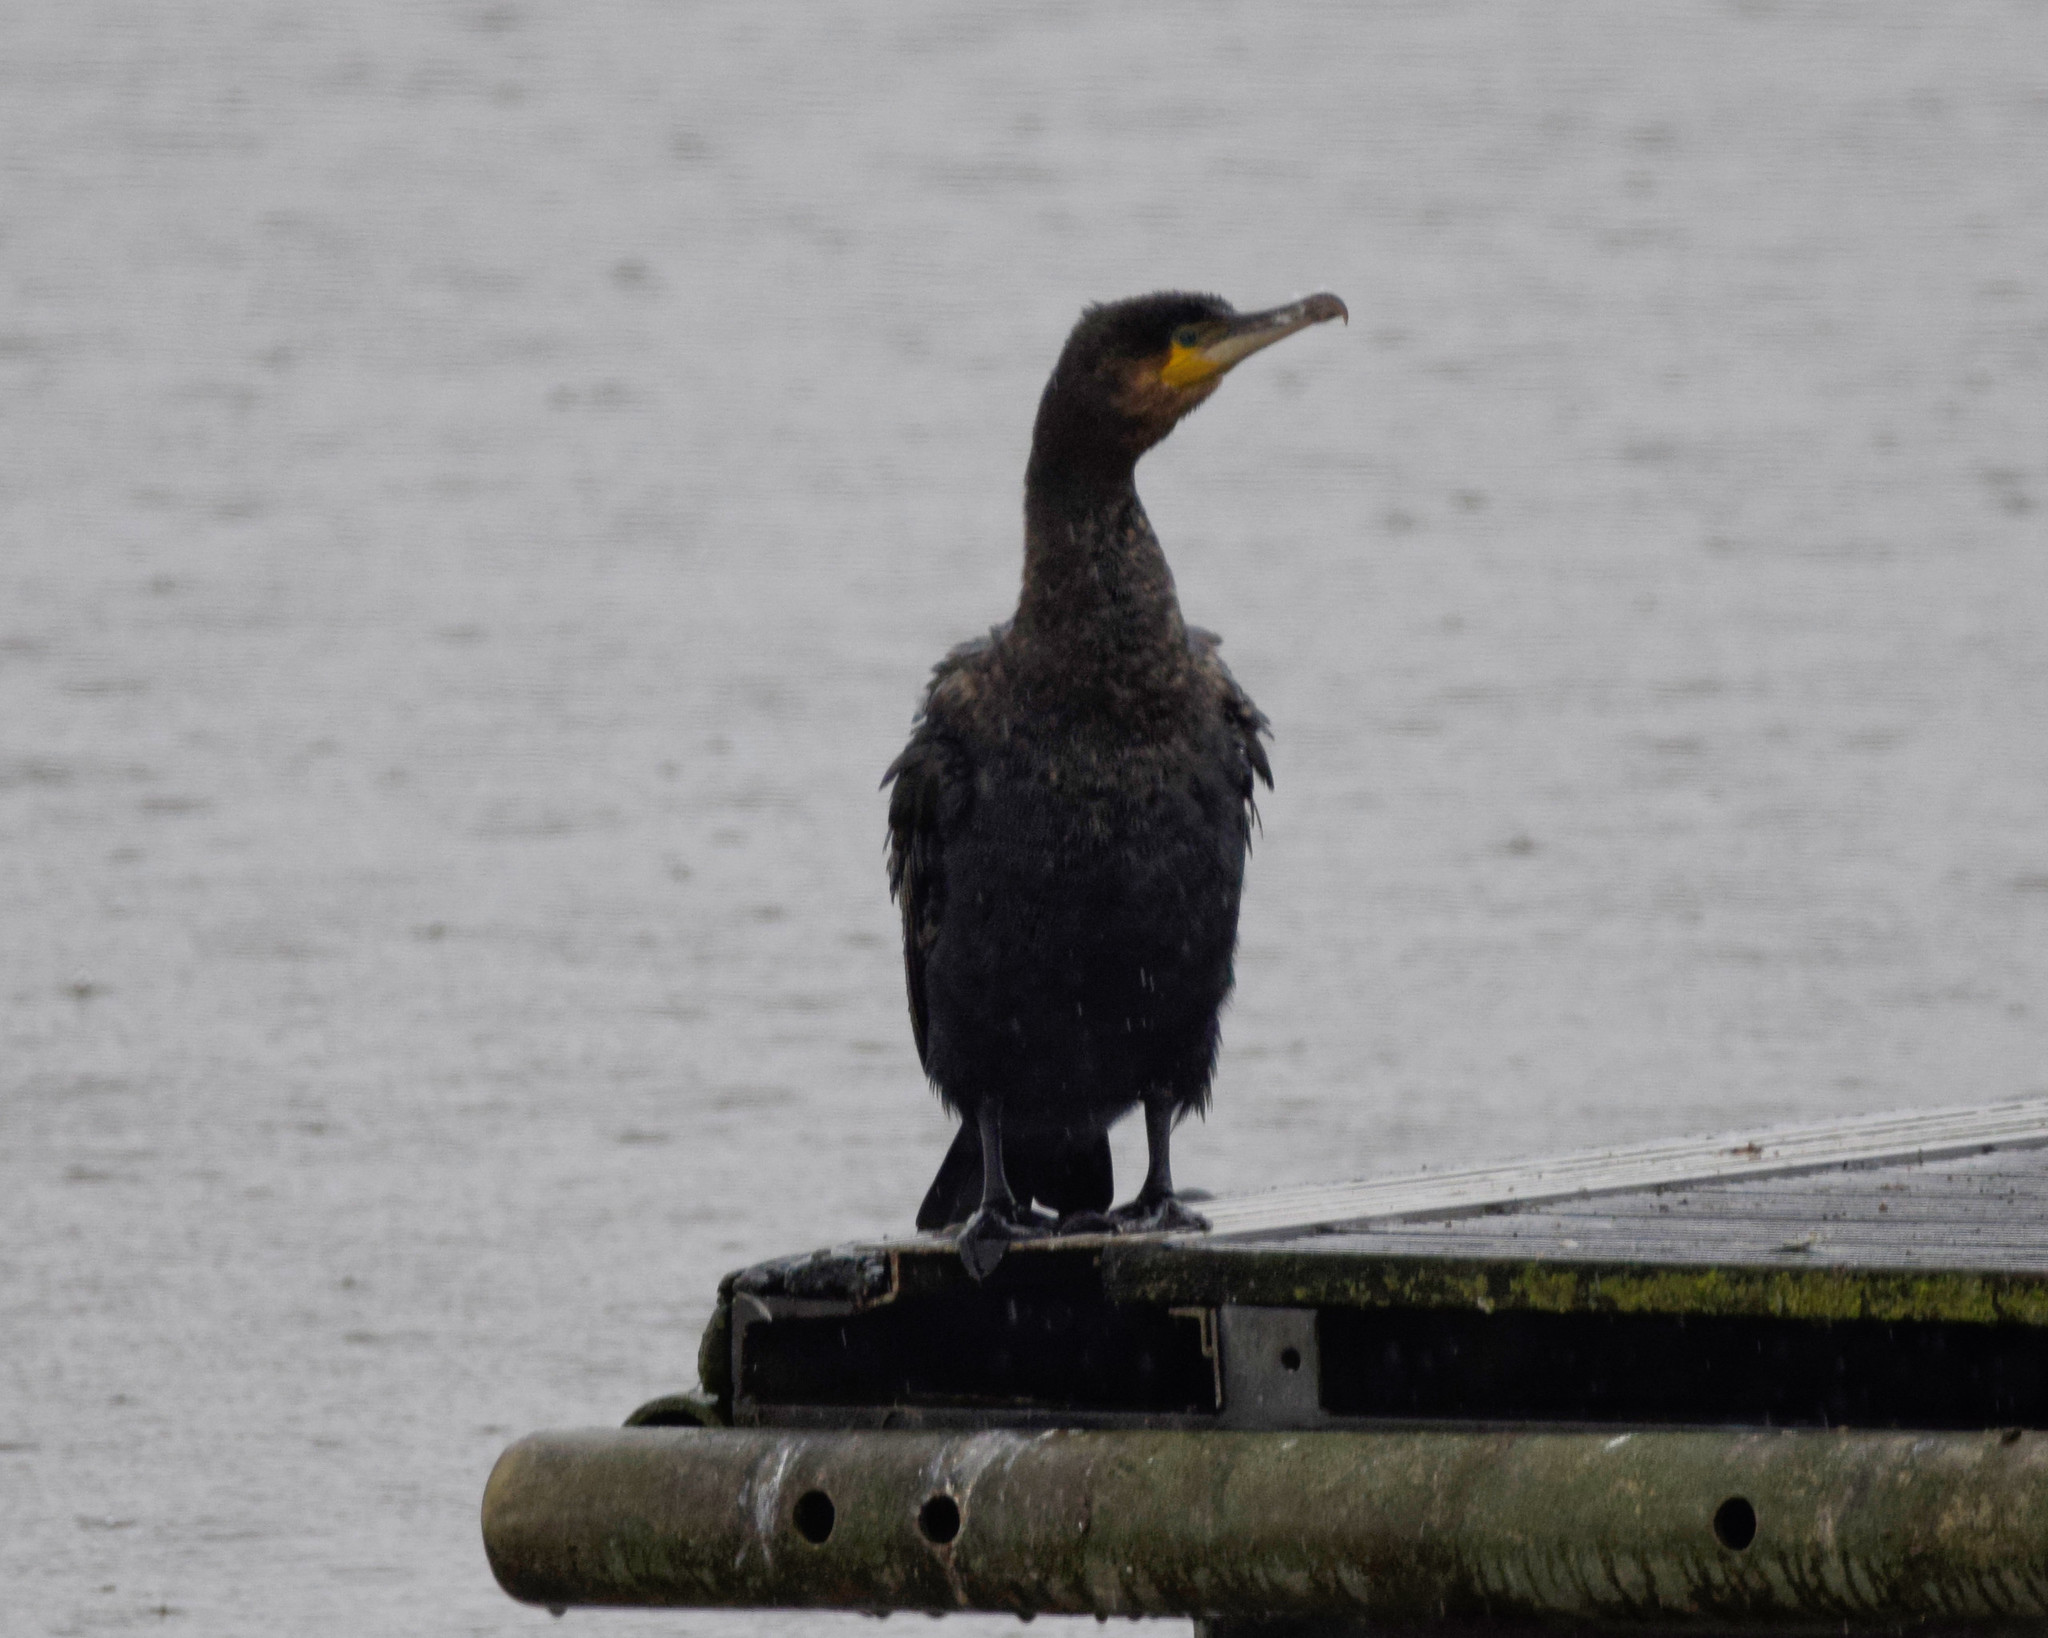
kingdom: Animalia
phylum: Chordata
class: Aves
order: Suliformes
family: Phalacrocoracidae
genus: Phalacrocorax
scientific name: Phalacrocorax carbo
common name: Great cormorant
